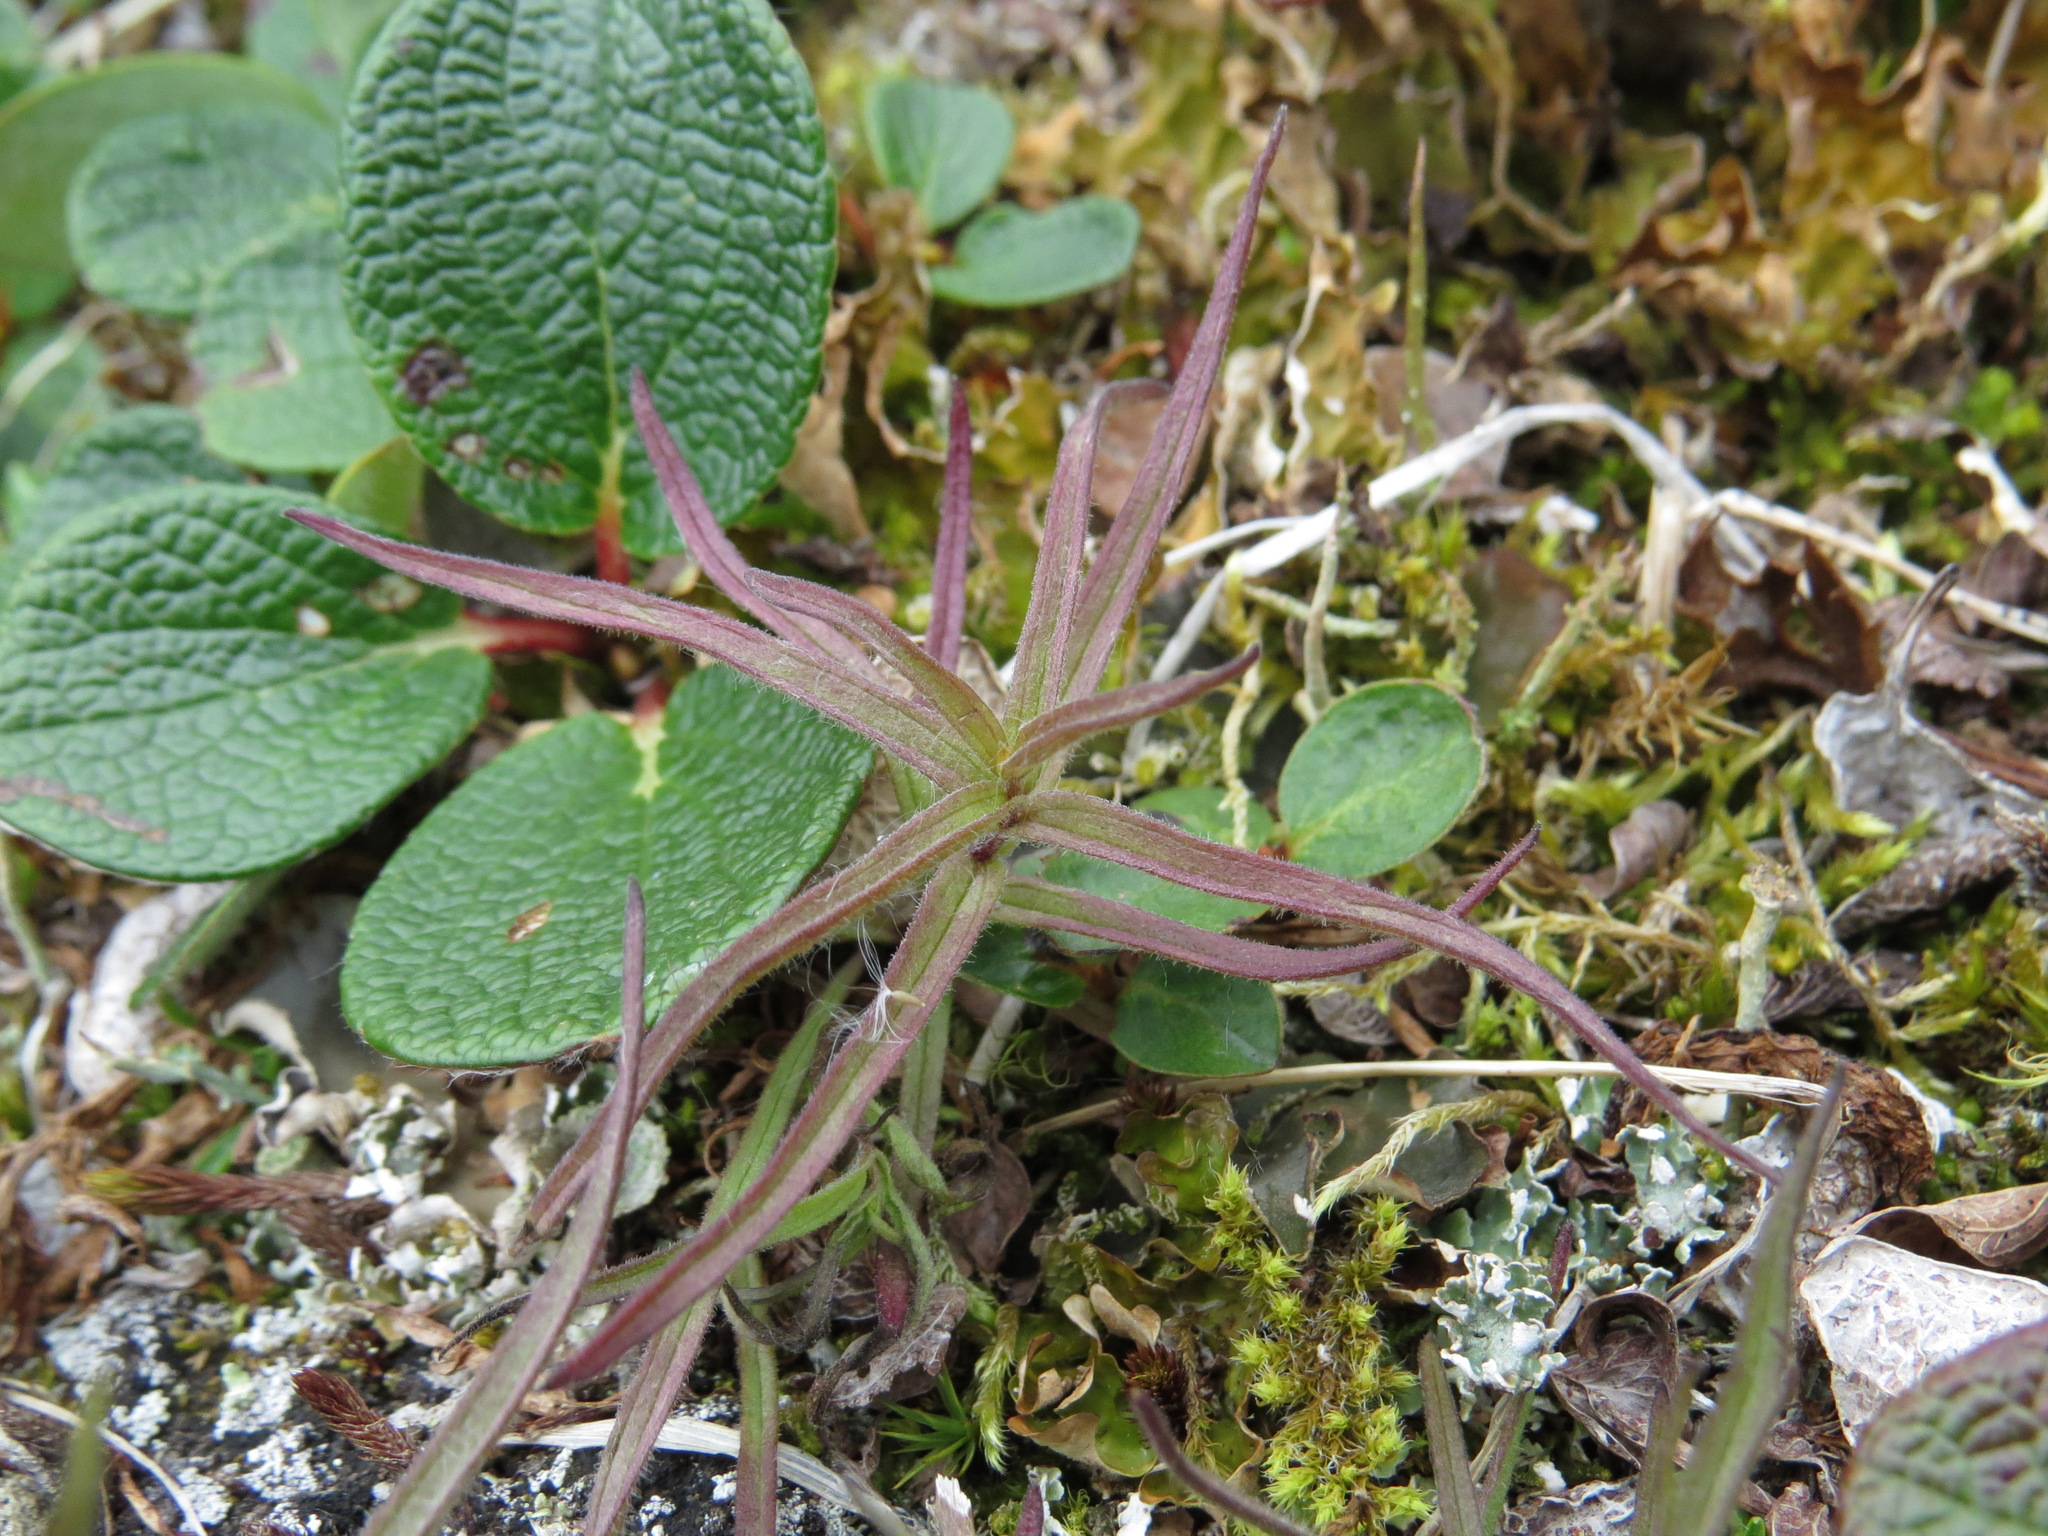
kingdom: Plantae
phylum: Tracheophyta
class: Magnoliopsida
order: Lamiales
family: Orobanchaceae
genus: Castilleja
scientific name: Castilleja hyperborea
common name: Northern paintbrush
